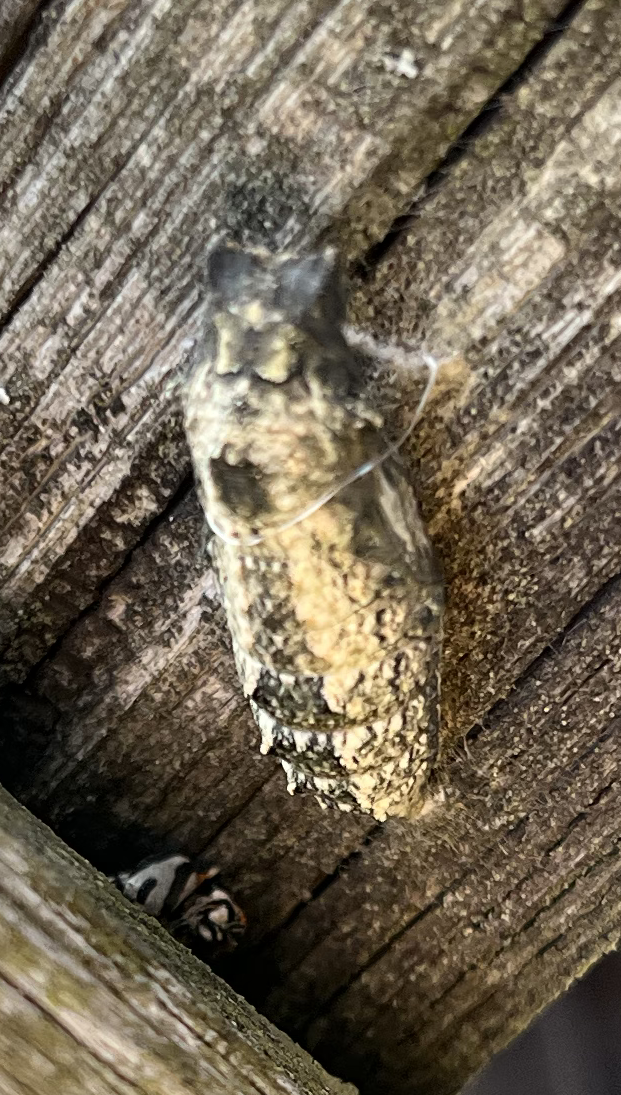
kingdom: Animalia
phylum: Arthropoda
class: Insecta
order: Lepidoptera
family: Papilionidae
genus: Papilio
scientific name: Papilio machaon
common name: Swallowtail
